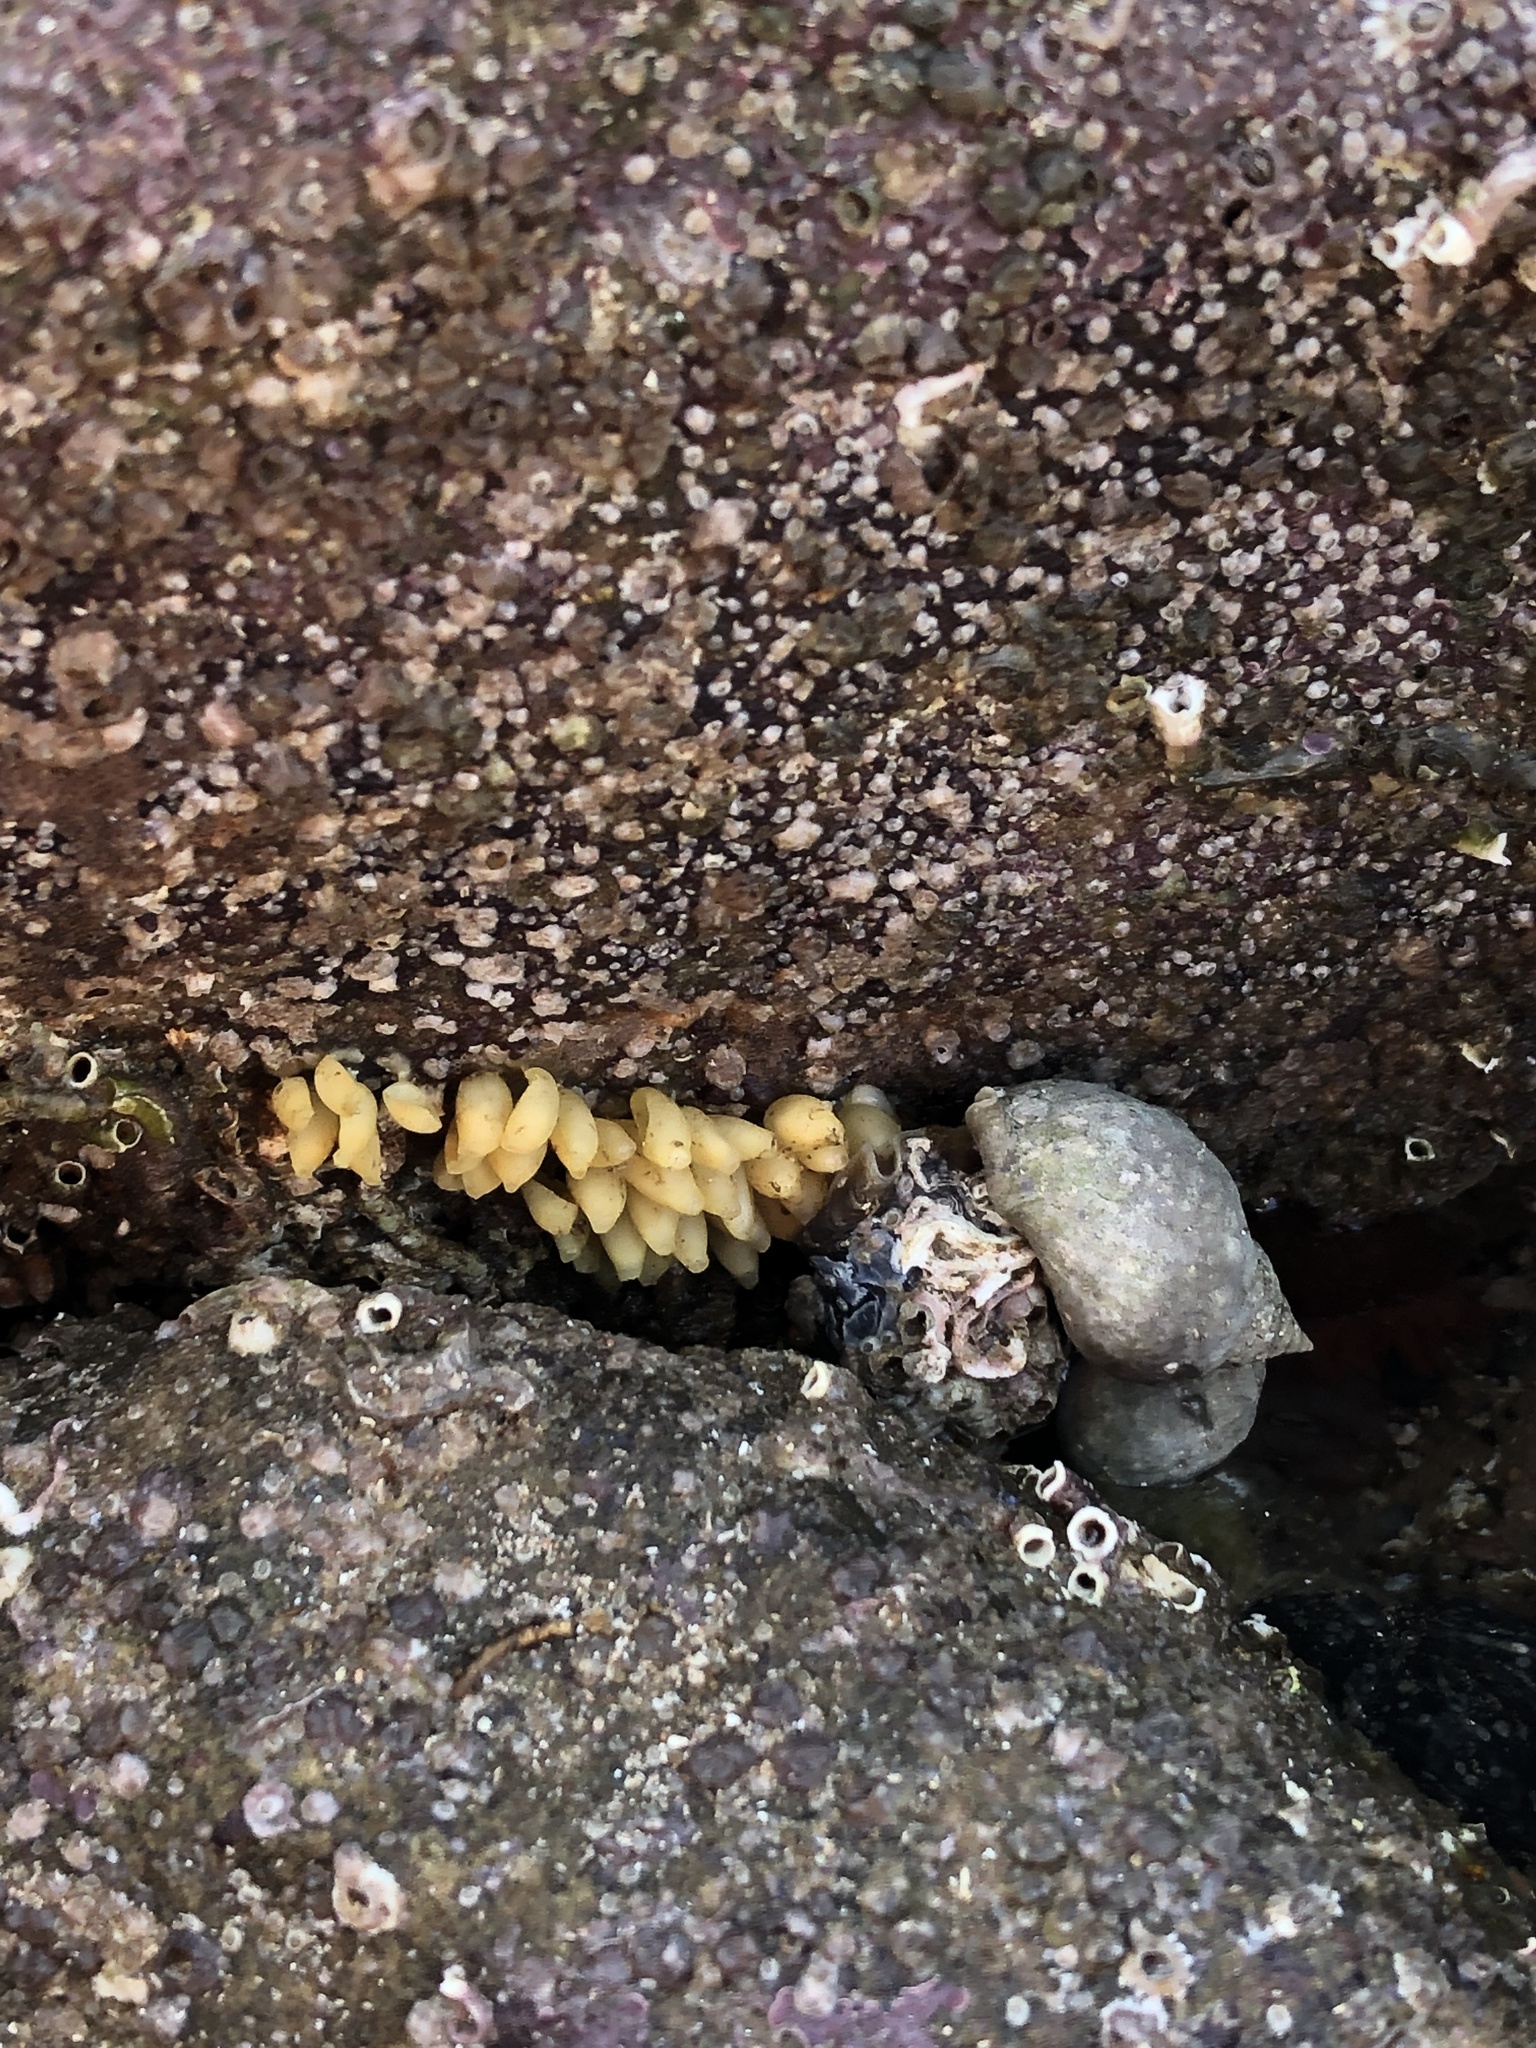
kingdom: Animalia
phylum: Mollusca
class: Gastropoda
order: Neogastropoda
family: Muricidae
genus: Nucella
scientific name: Nucella lapillus
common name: Dog whelk
